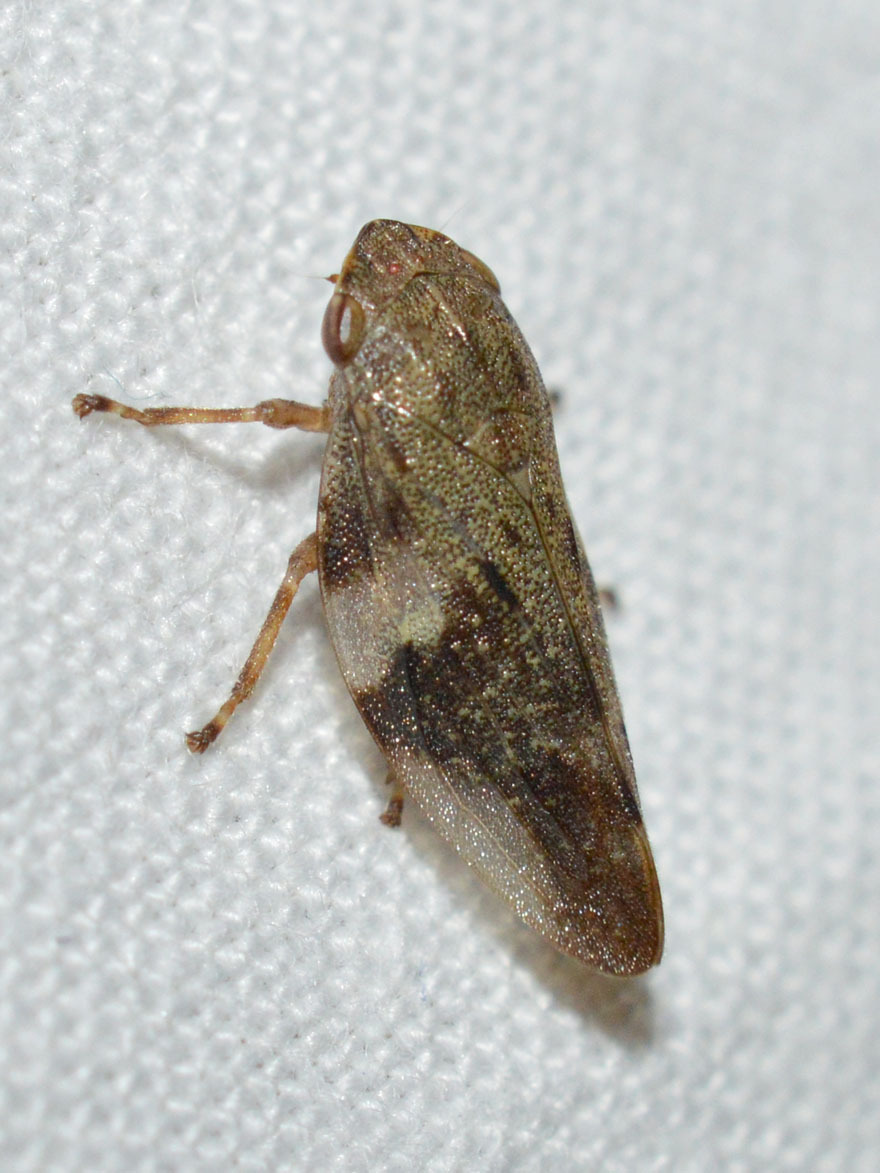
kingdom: Animalia
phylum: Arthropoda
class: Insecta
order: Hemiptera
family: Aphrophoridae
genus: Aphrophora
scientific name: Aphrophora alni
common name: European alder spittlebug
